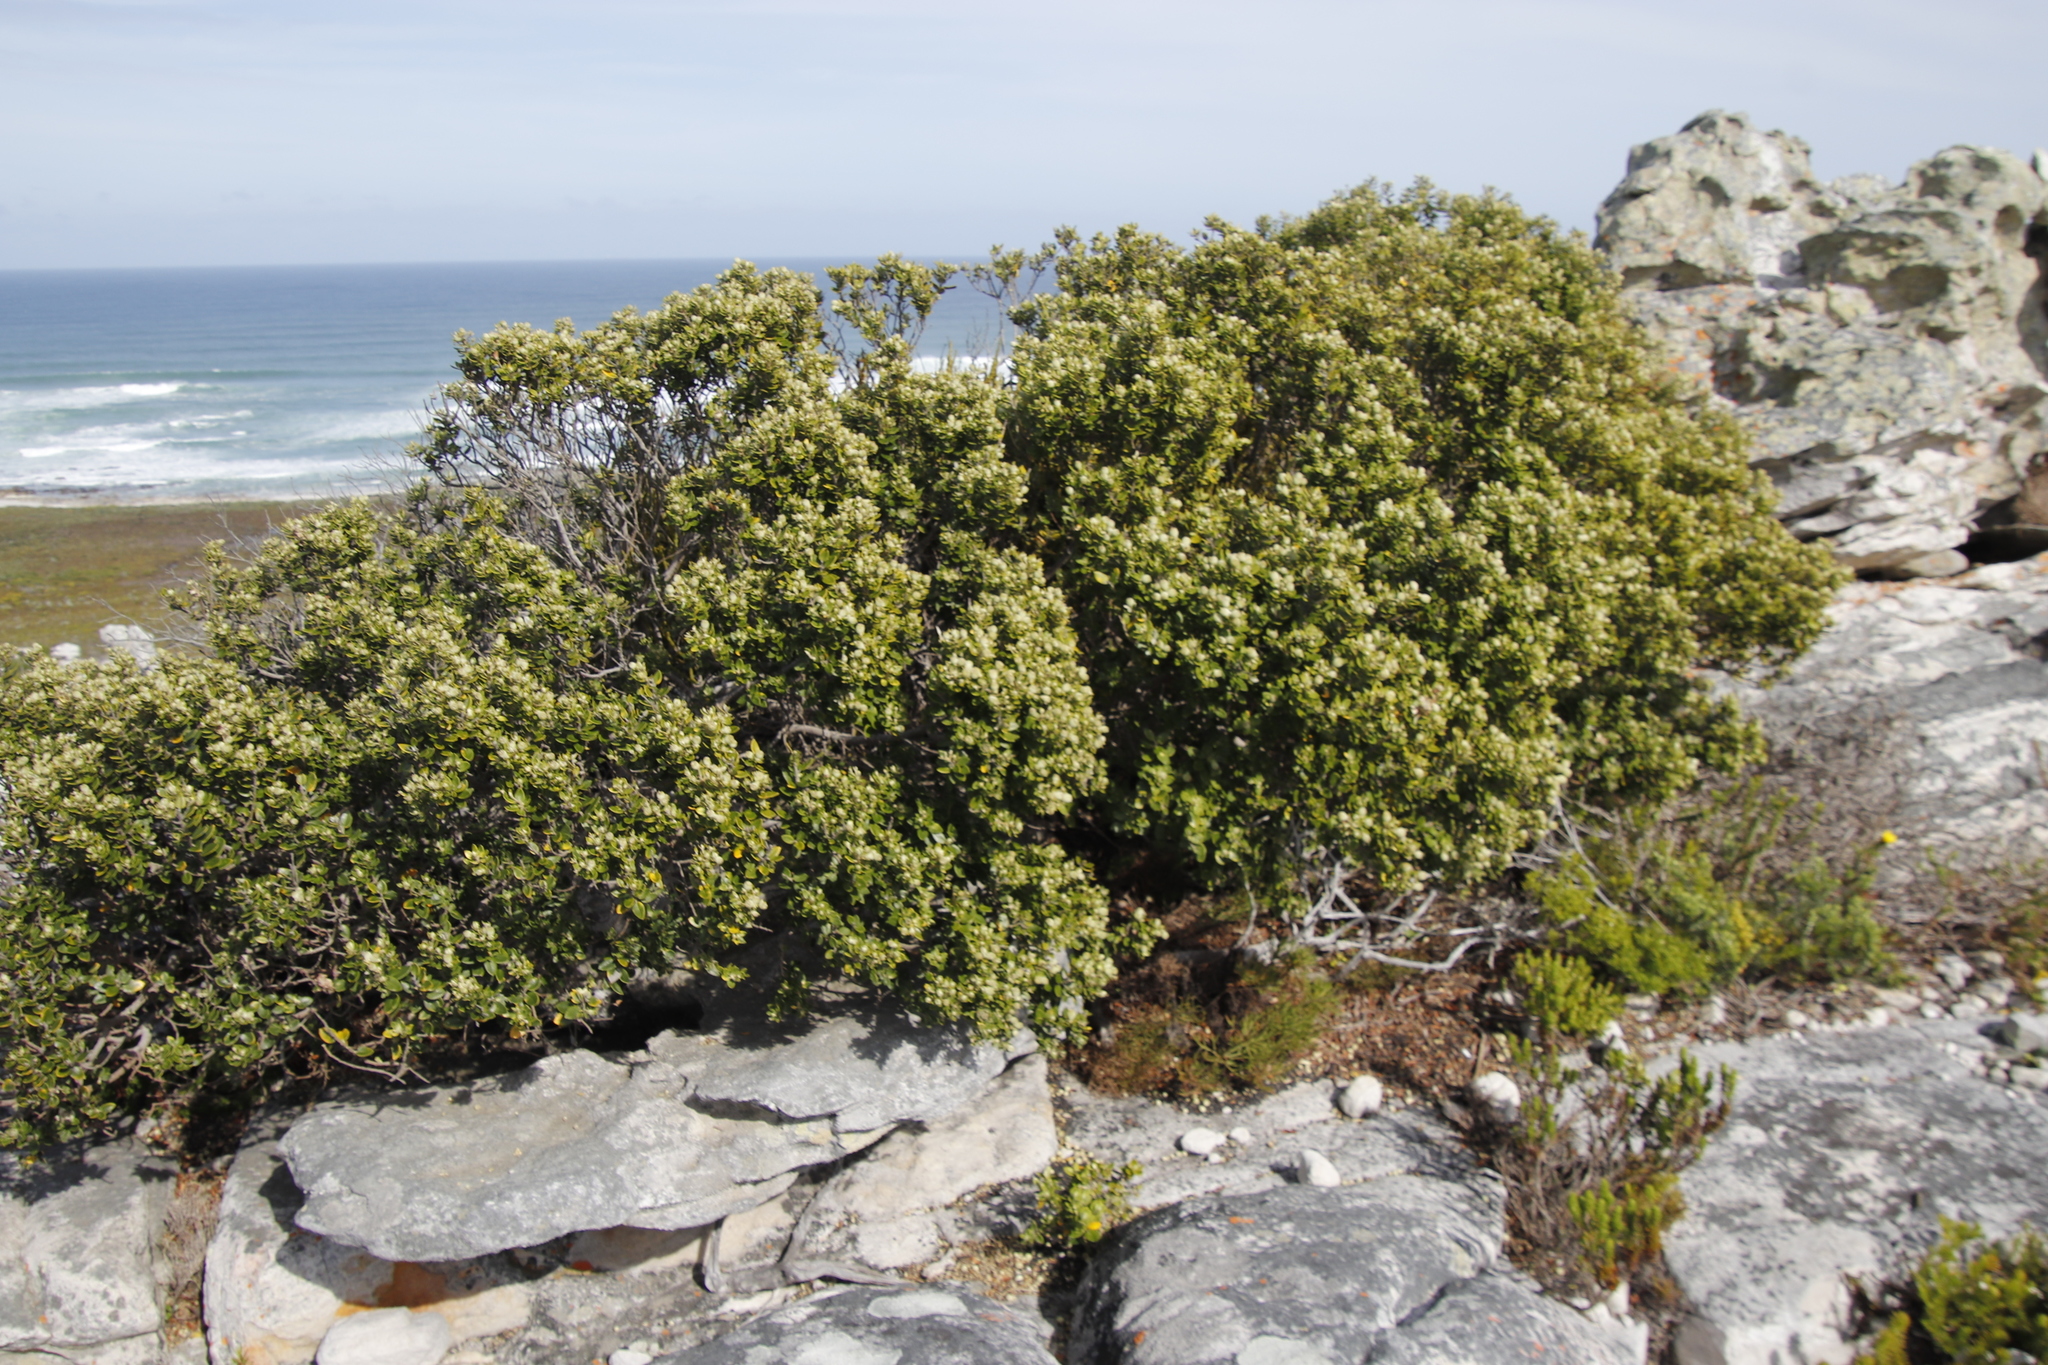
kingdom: Plantae
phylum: Tracheophyta
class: Magnoliopsida
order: Rosales
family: Rhamnaceae
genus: Phylica
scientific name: Phylica buxifolia
